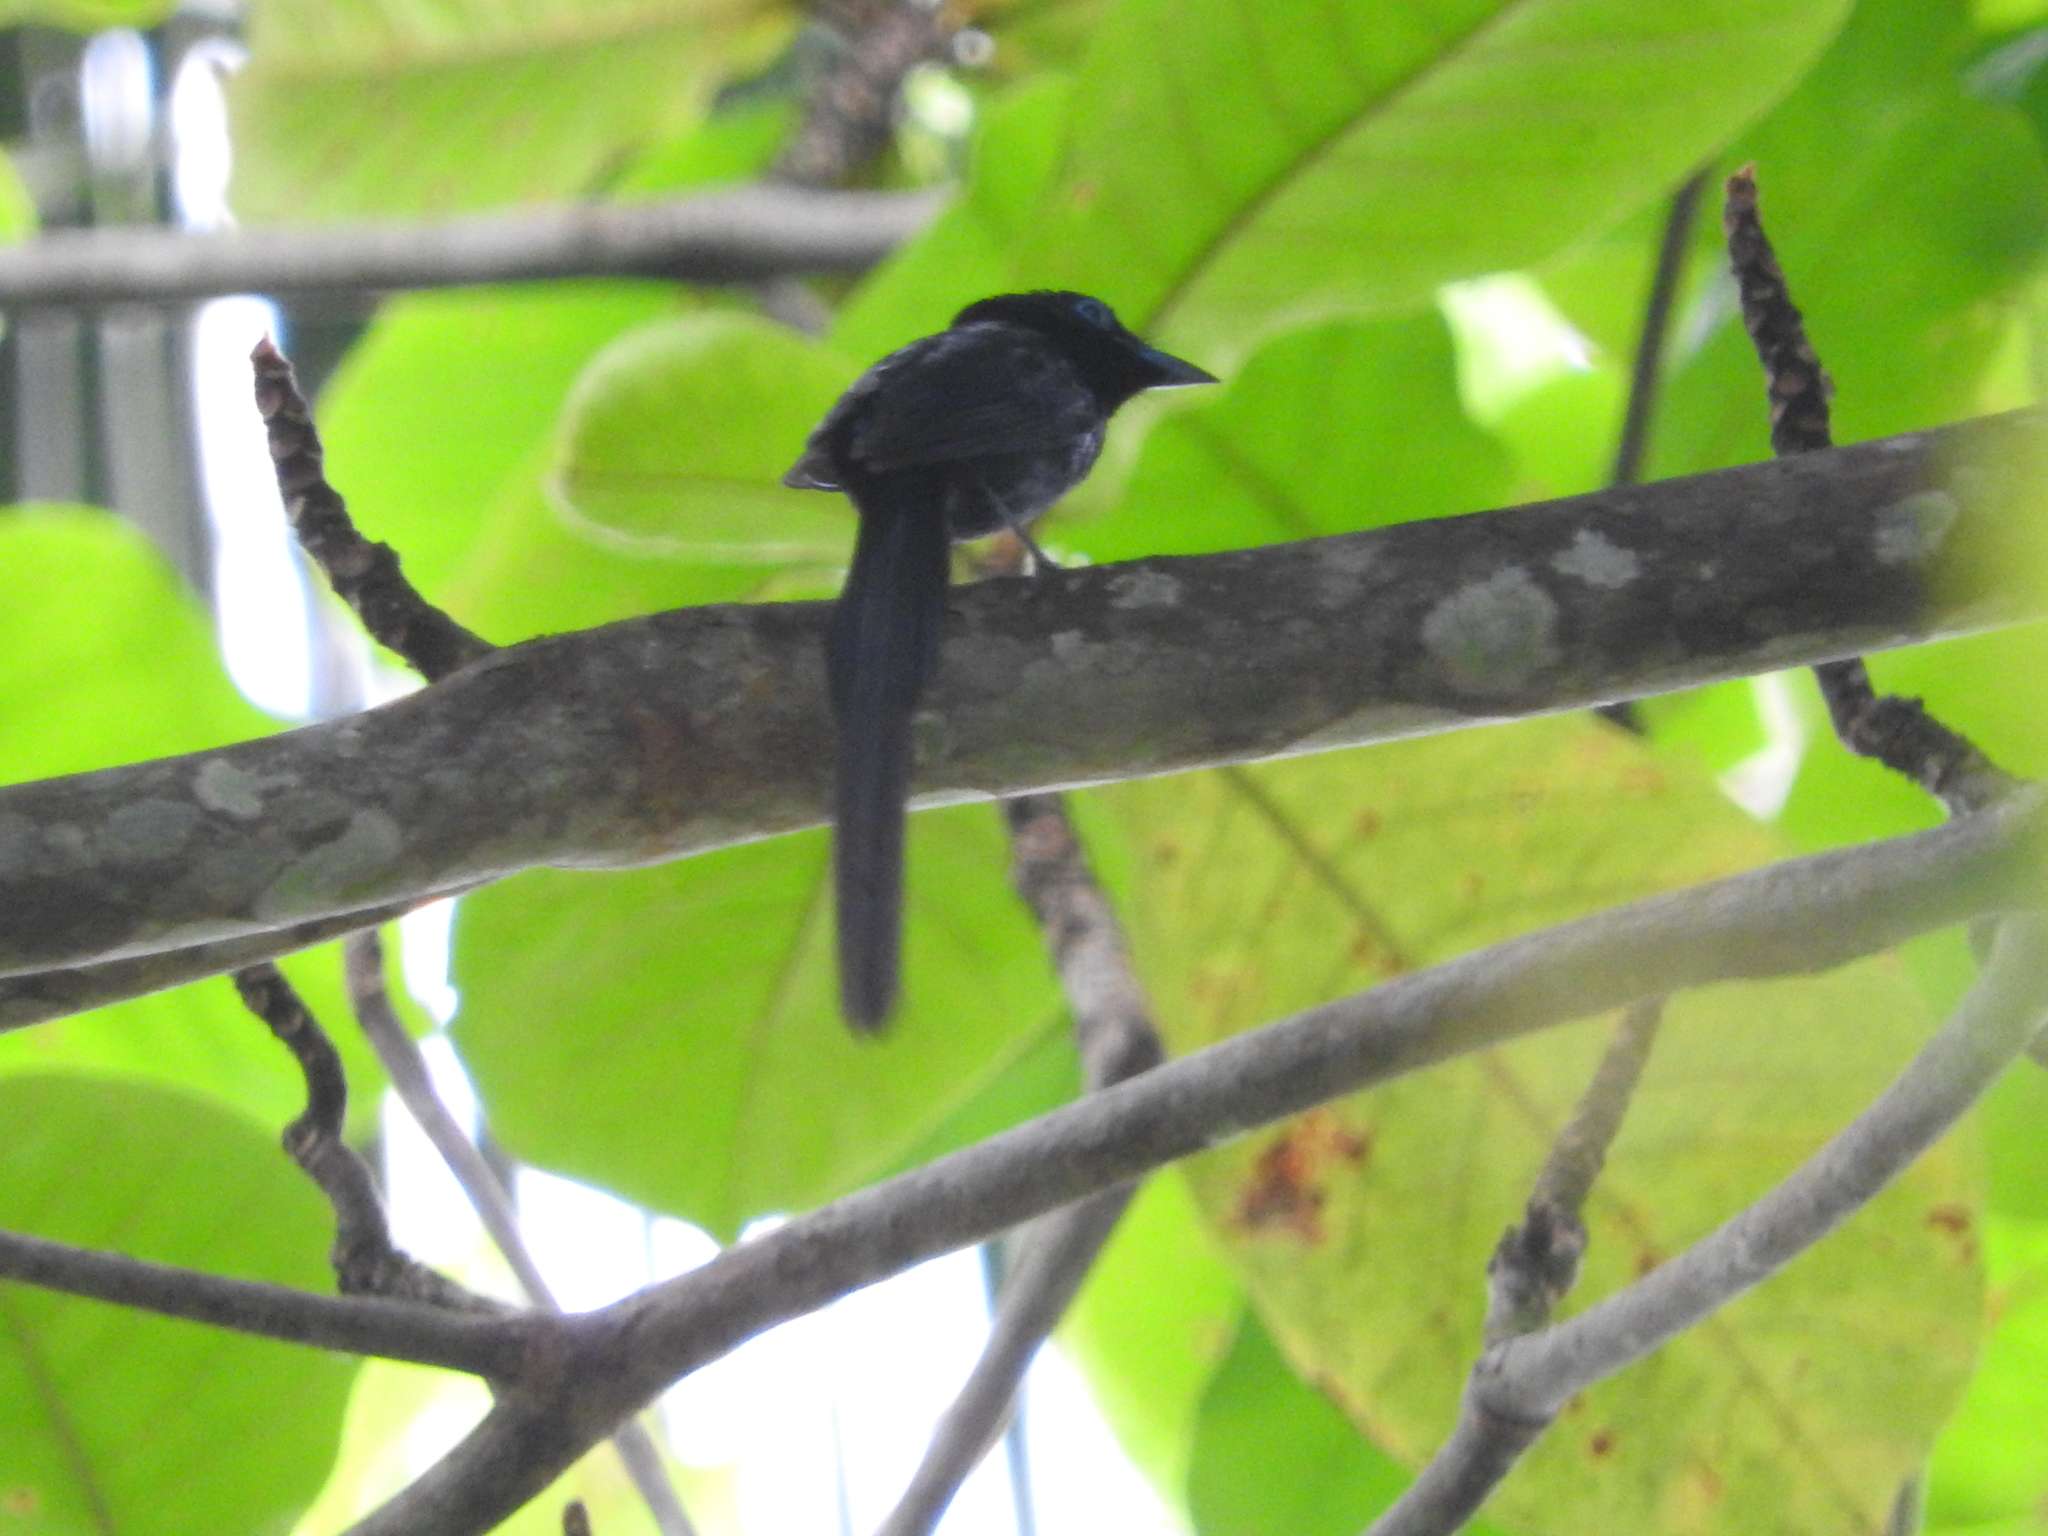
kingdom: Animalia
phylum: Chordata
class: Aves
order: Passeriformes
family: Monarchidae
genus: Terpsiphone
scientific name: Terpsiphone atrochalybeia
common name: Sao tome paradise flycatcher
